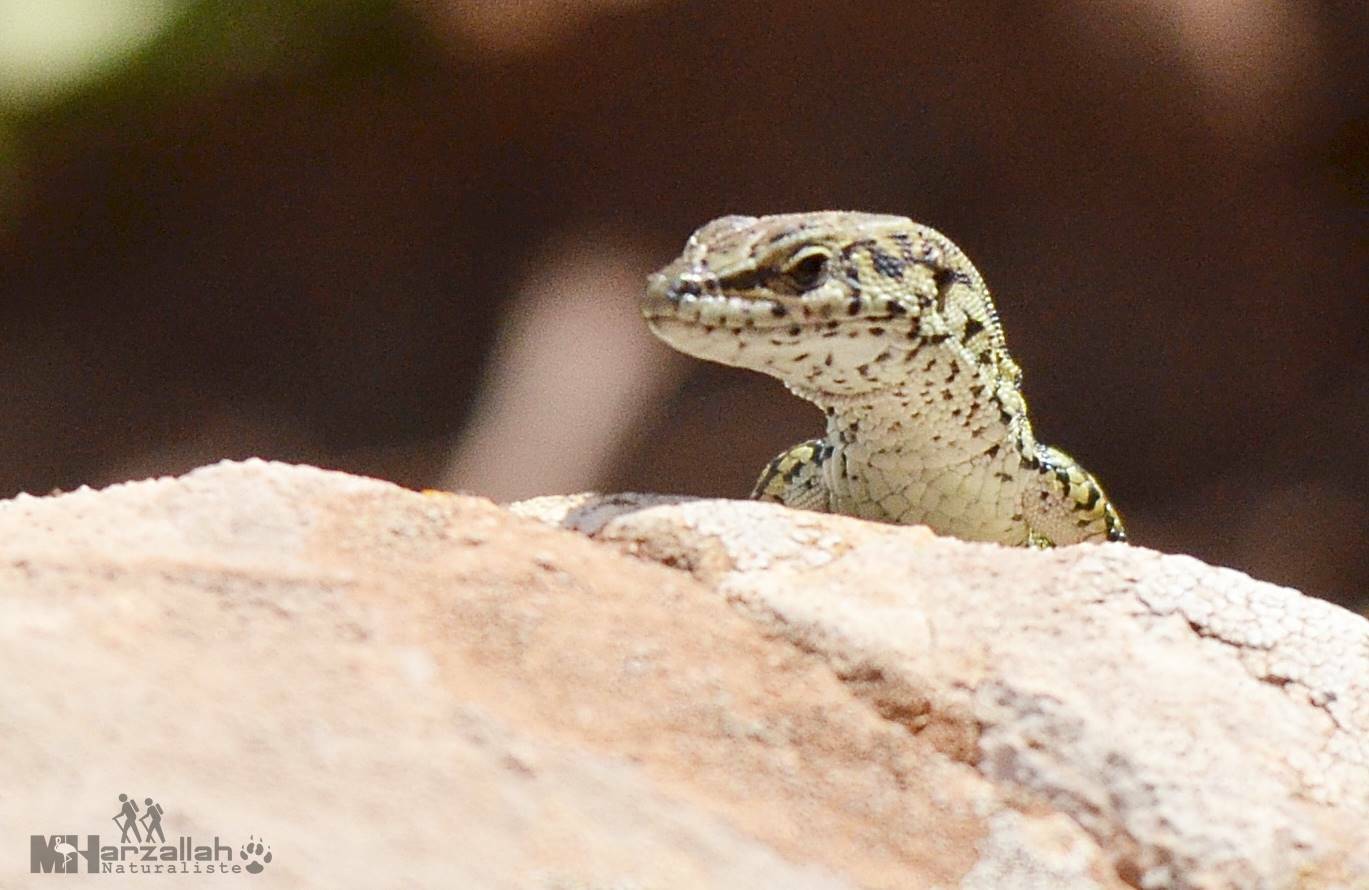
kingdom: Animalia
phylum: Chordata
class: Squamata
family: Lacertidae
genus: Podarcis
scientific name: Podarcis vaucheri
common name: Vaucher's wall lizard
